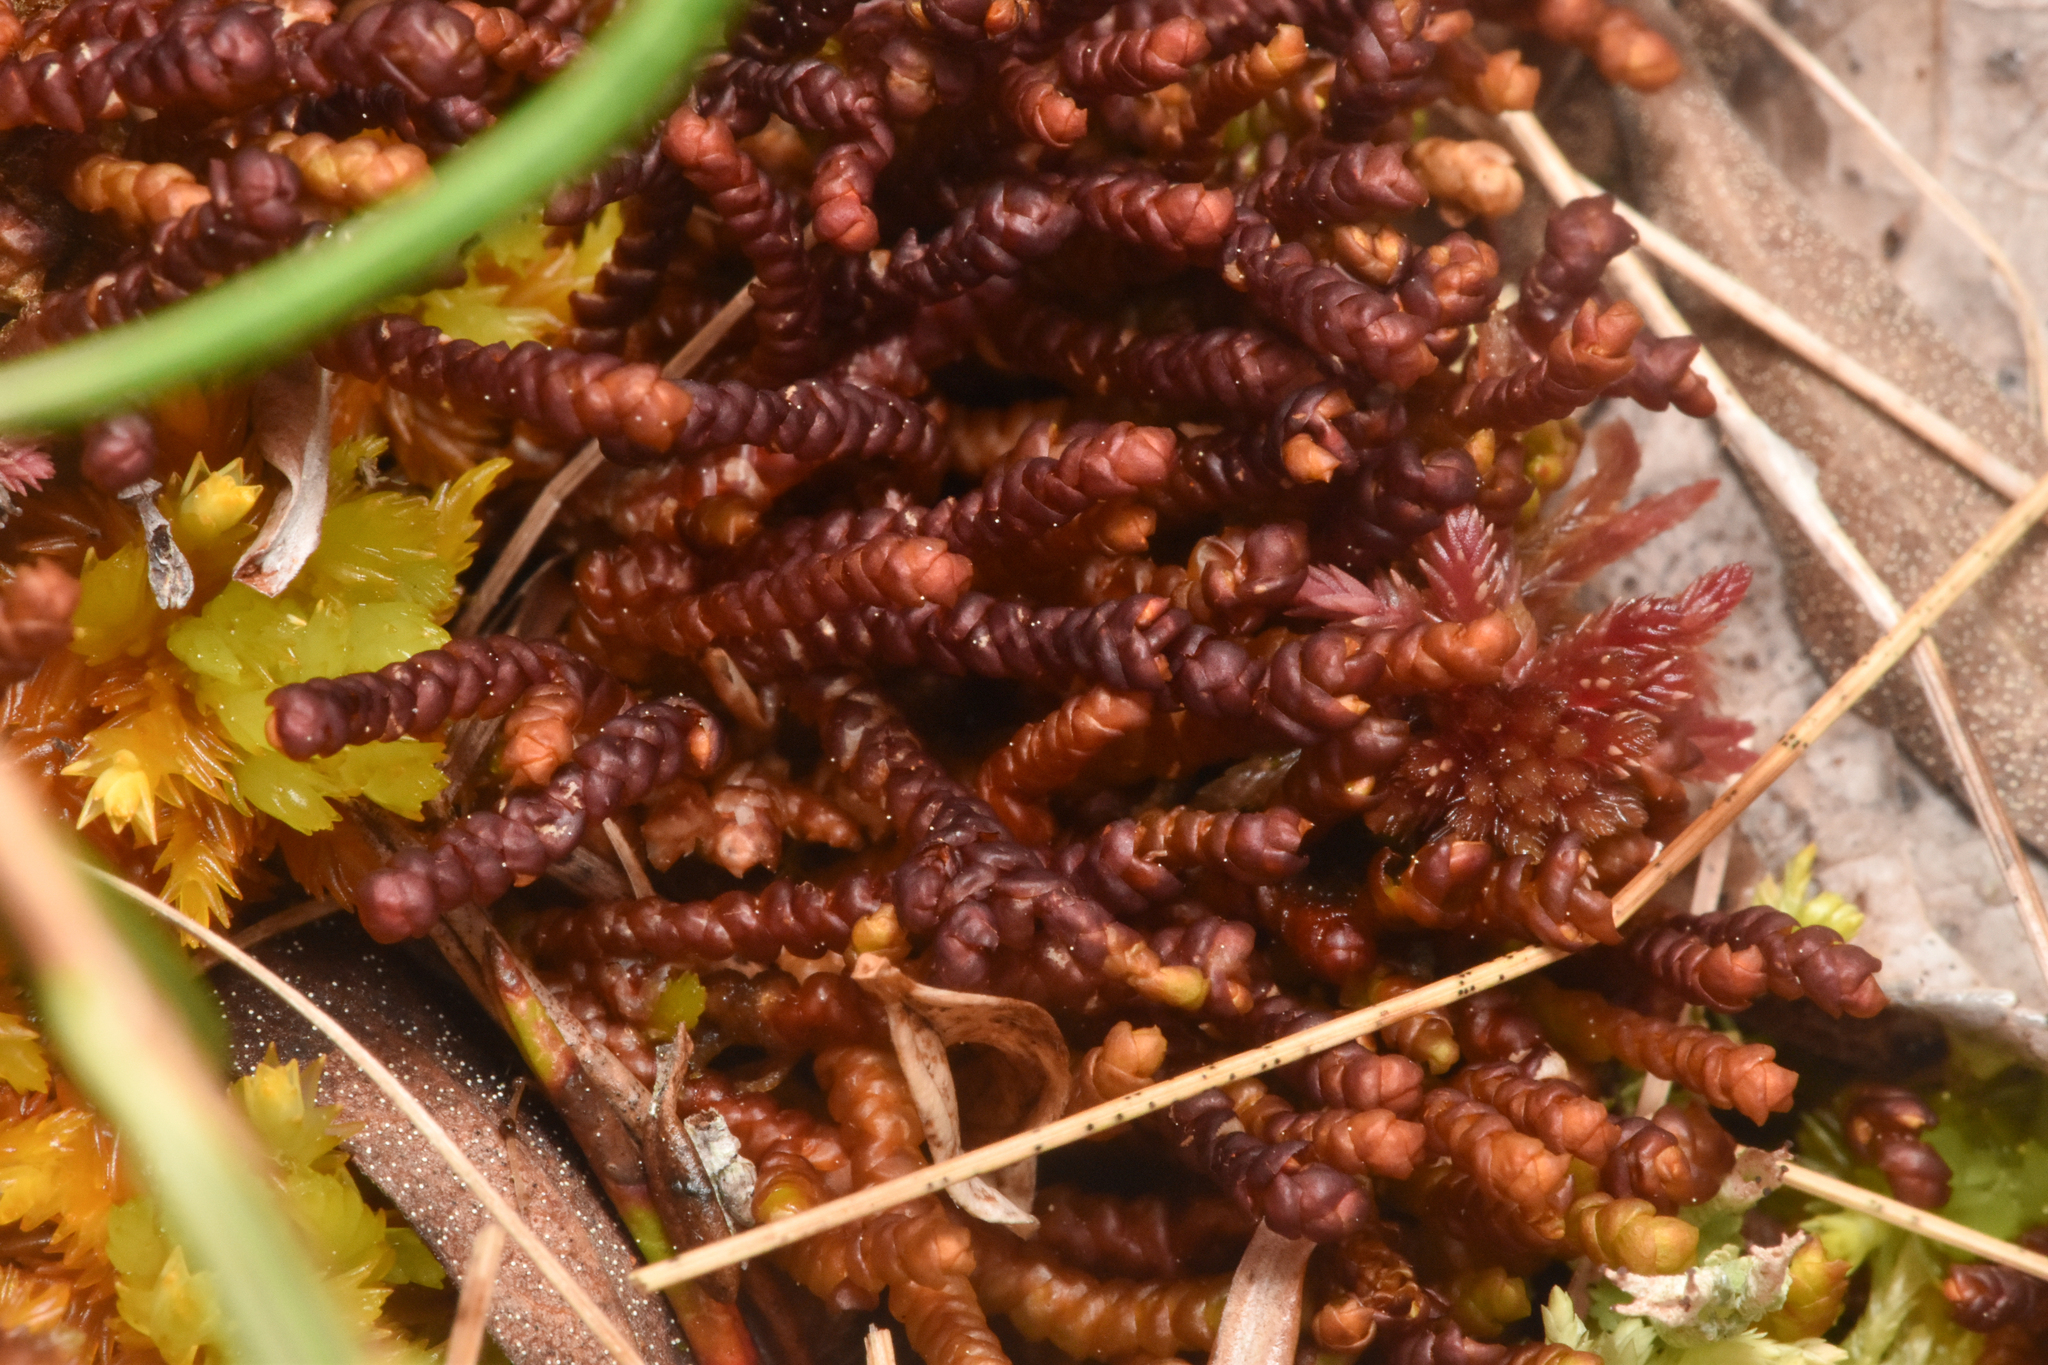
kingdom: Plantae
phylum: Marchantiophyta
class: Jungermanniopsida
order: Pleuroziales
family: Pleuroziaceae
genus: Pleurozia
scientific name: Pleurozia purpurea
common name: Purple spoonwort
